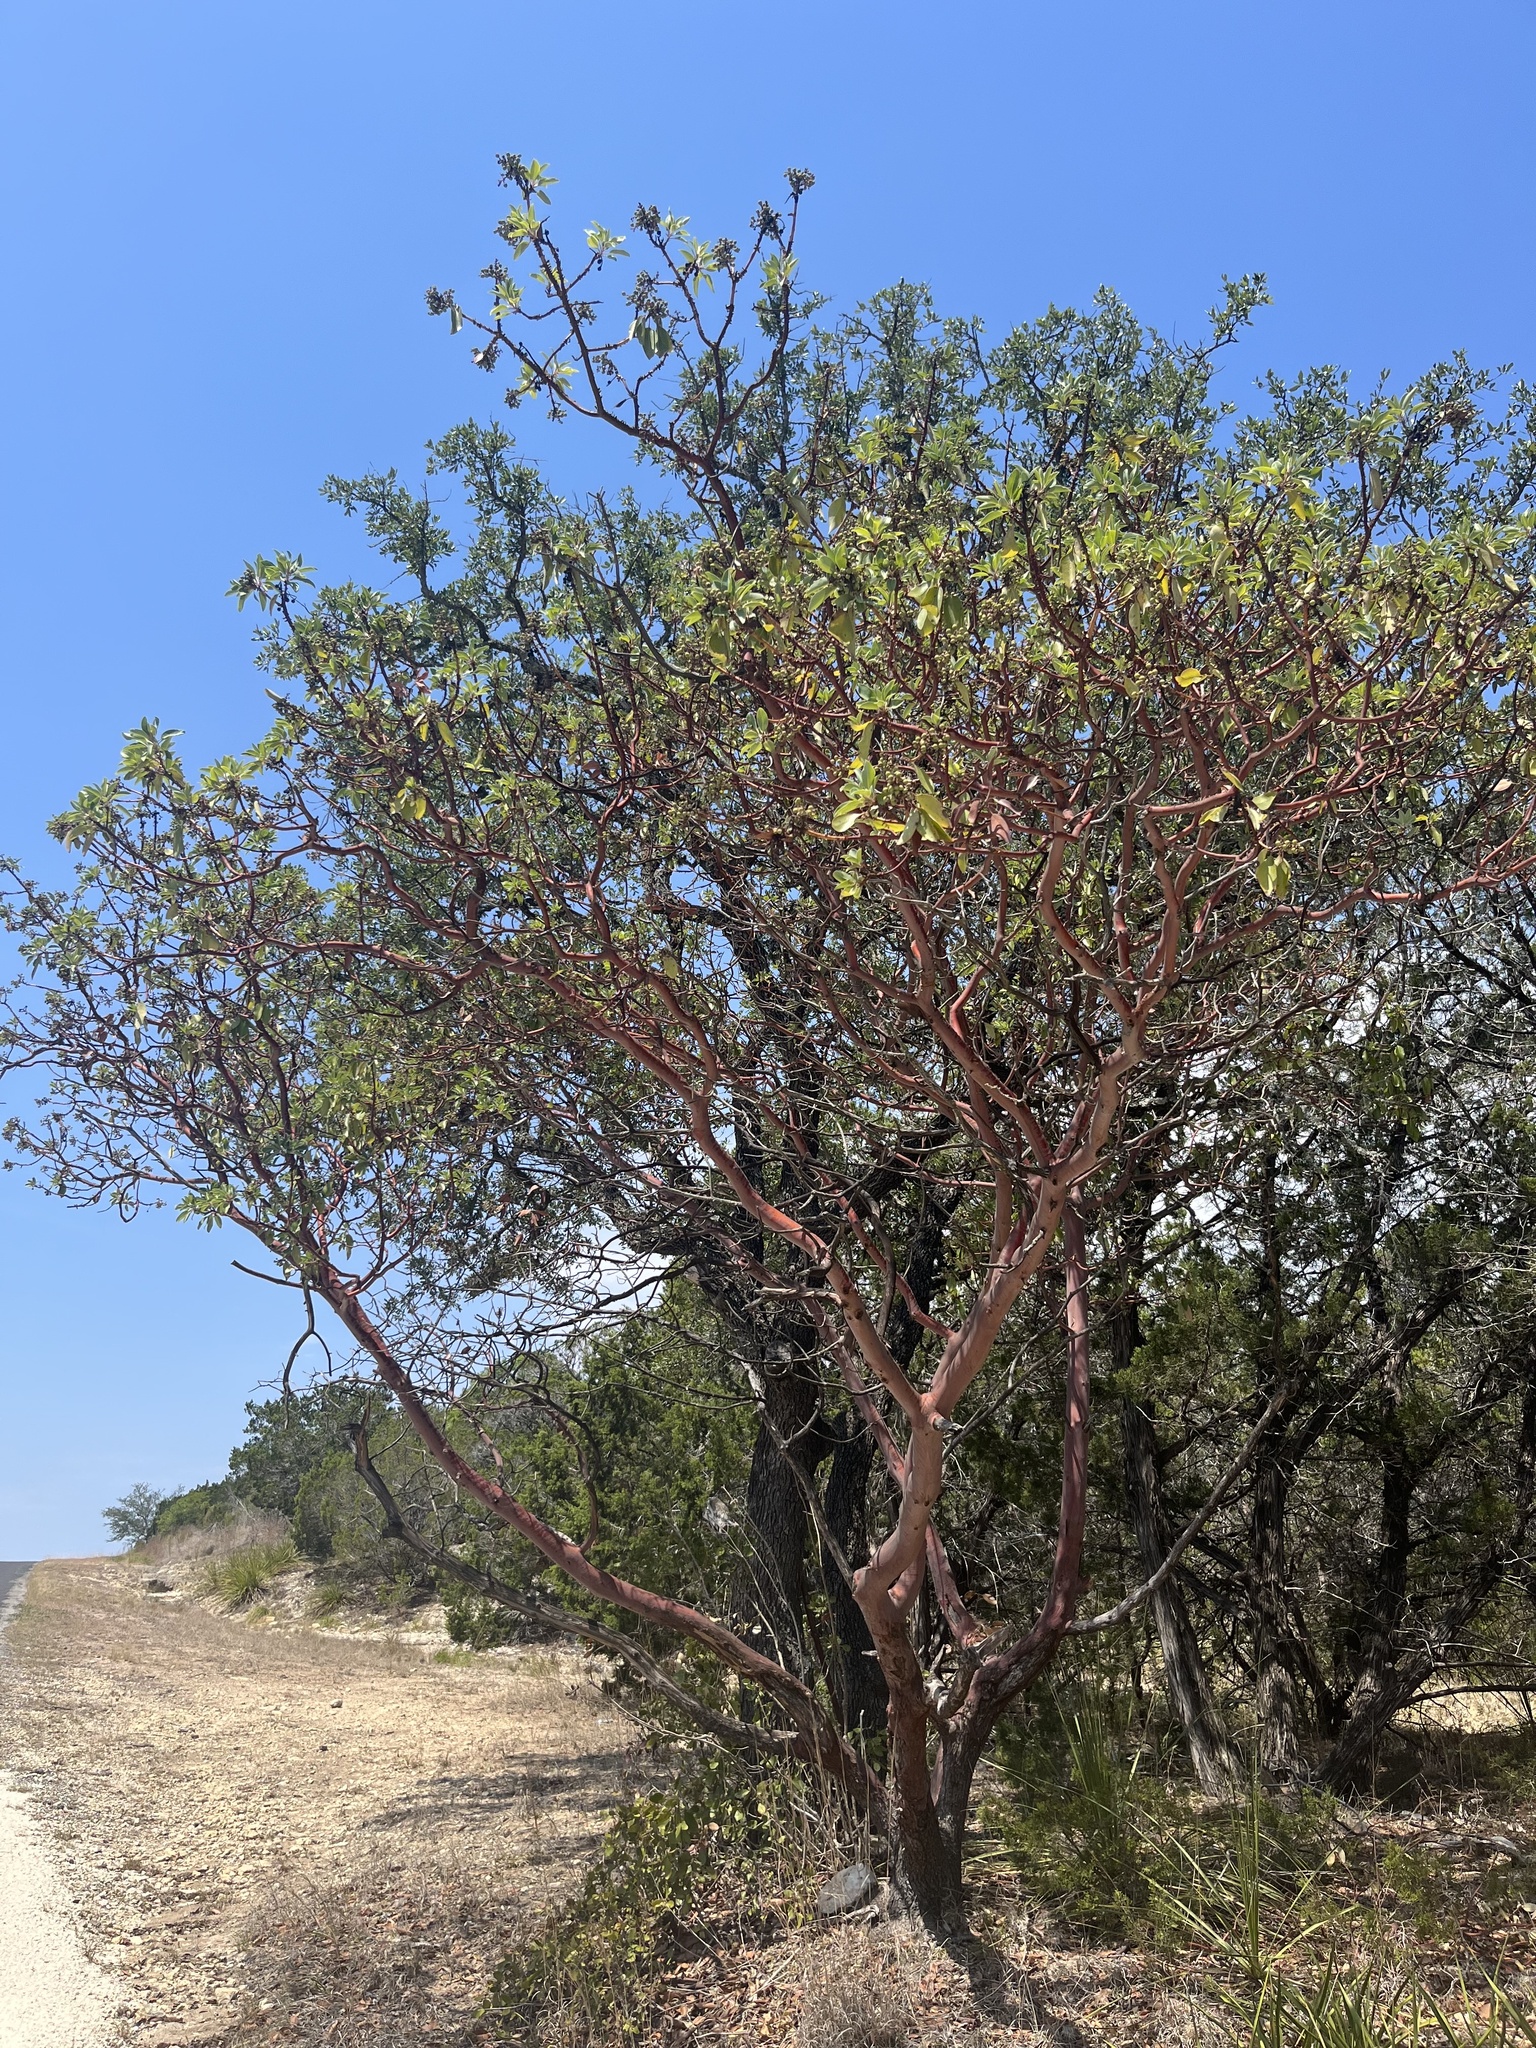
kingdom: Plantae
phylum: Tracheophyta
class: Magnoliopsida
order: Ericales
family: Ericaceae
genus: Arbutus
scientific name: Arbutus xalapensis
